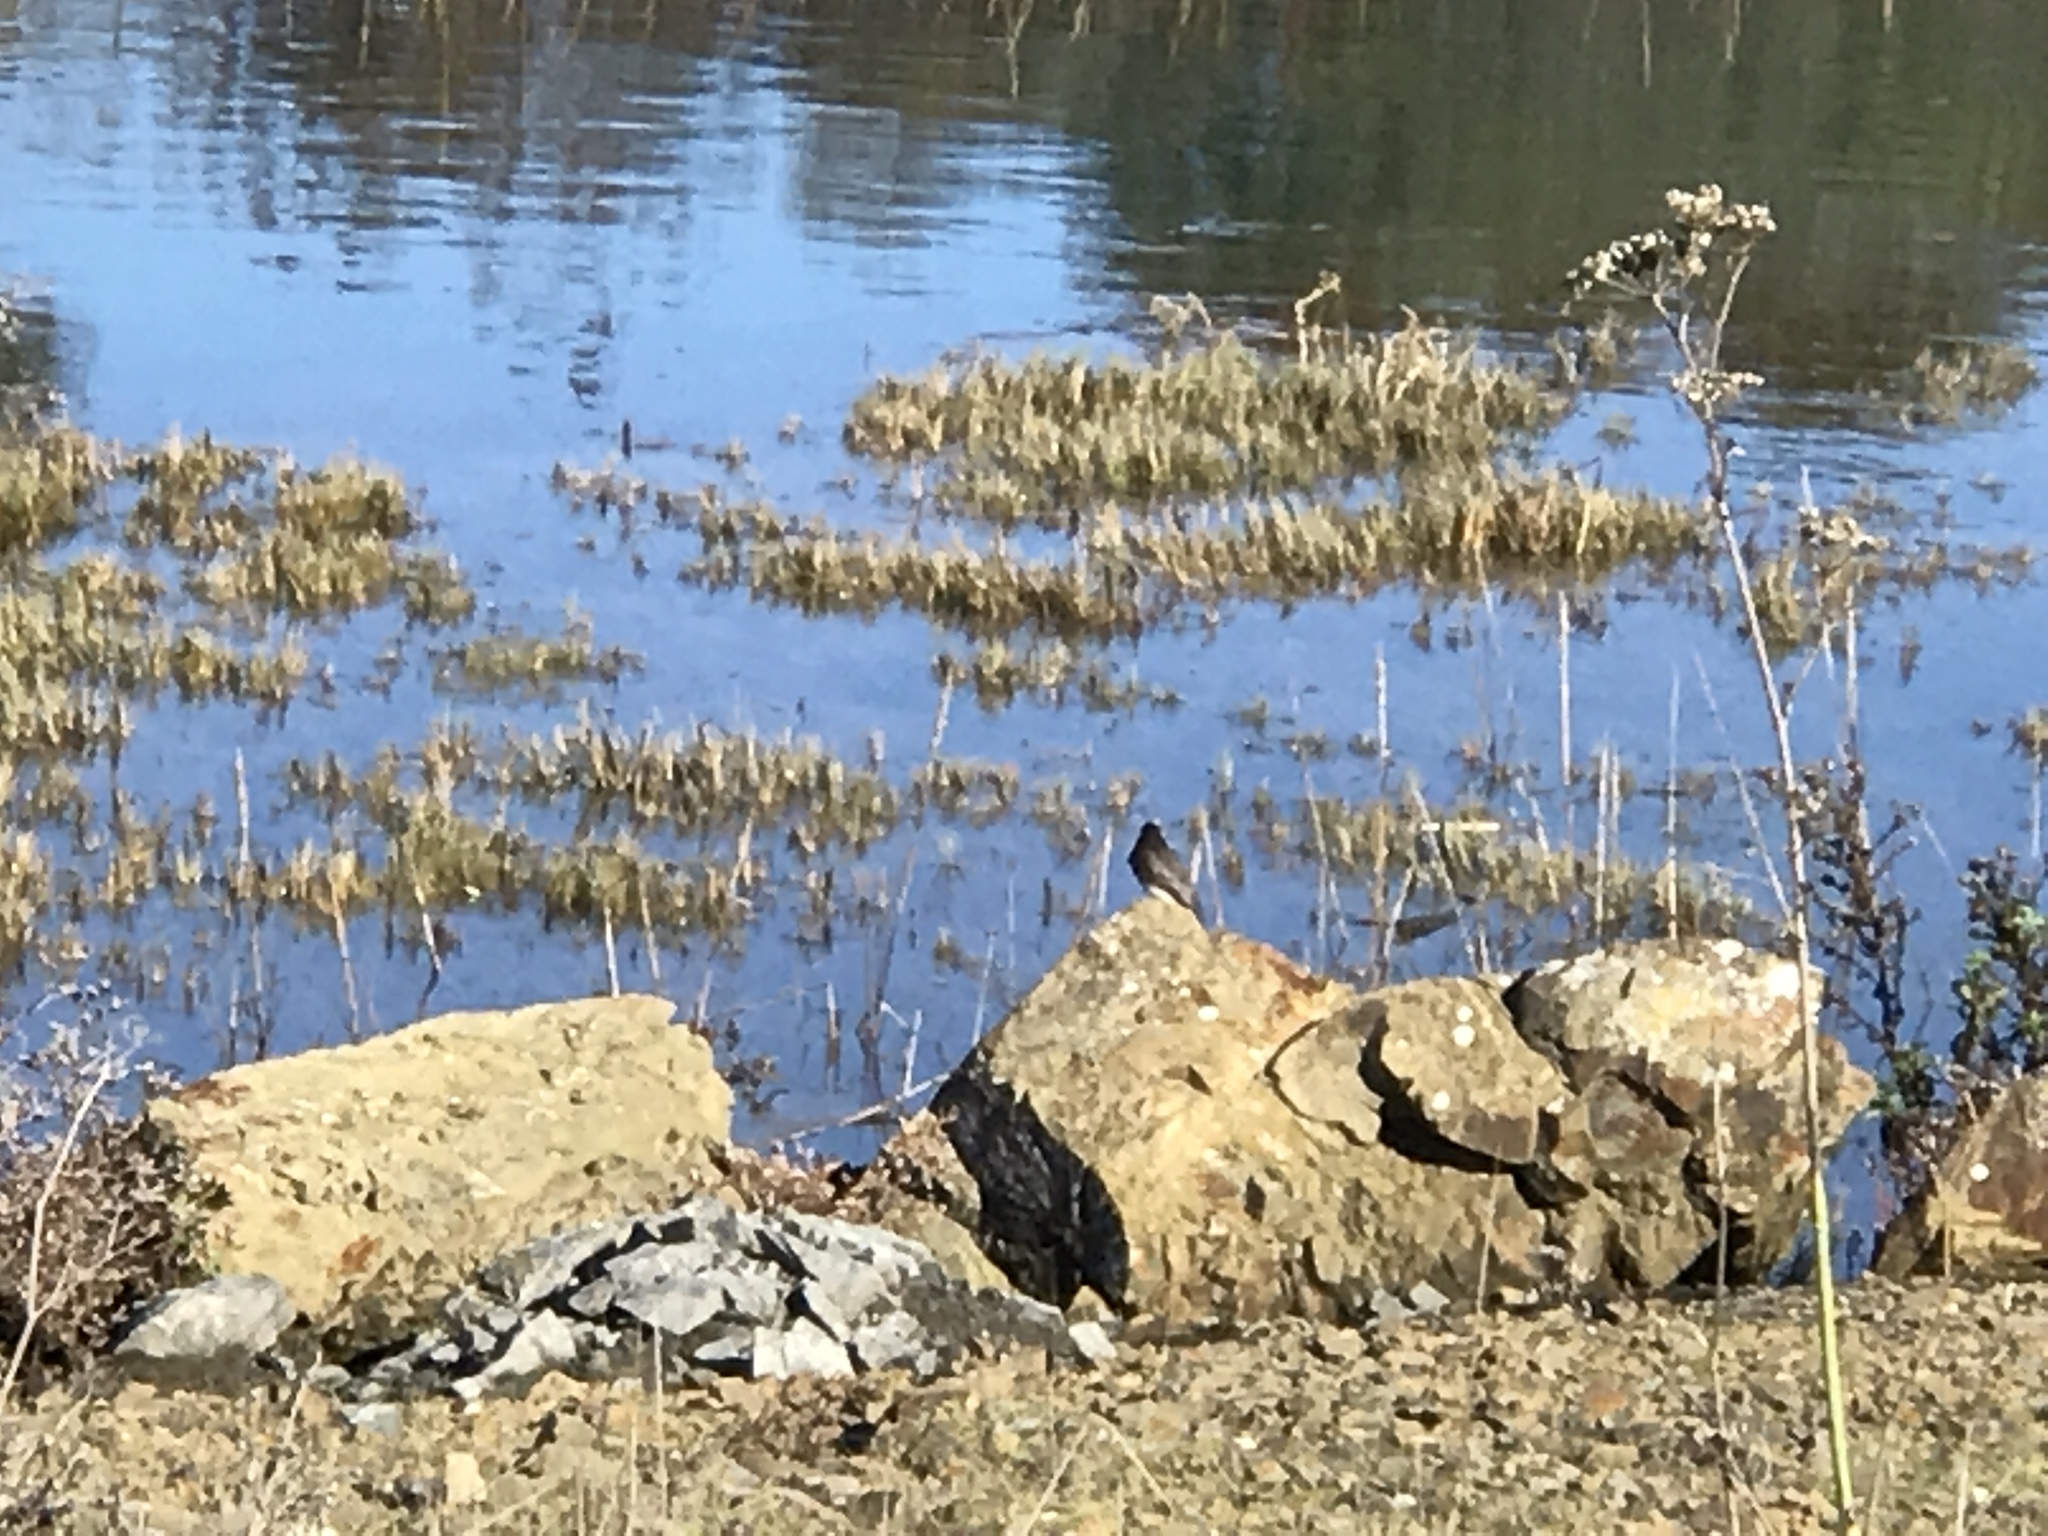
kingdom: Animalia
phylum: Chordata
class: Aves
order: Passeriformes
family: Tyrannidae
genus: Sayornis
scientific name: Sayornis nigricans
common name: Black phoebe
